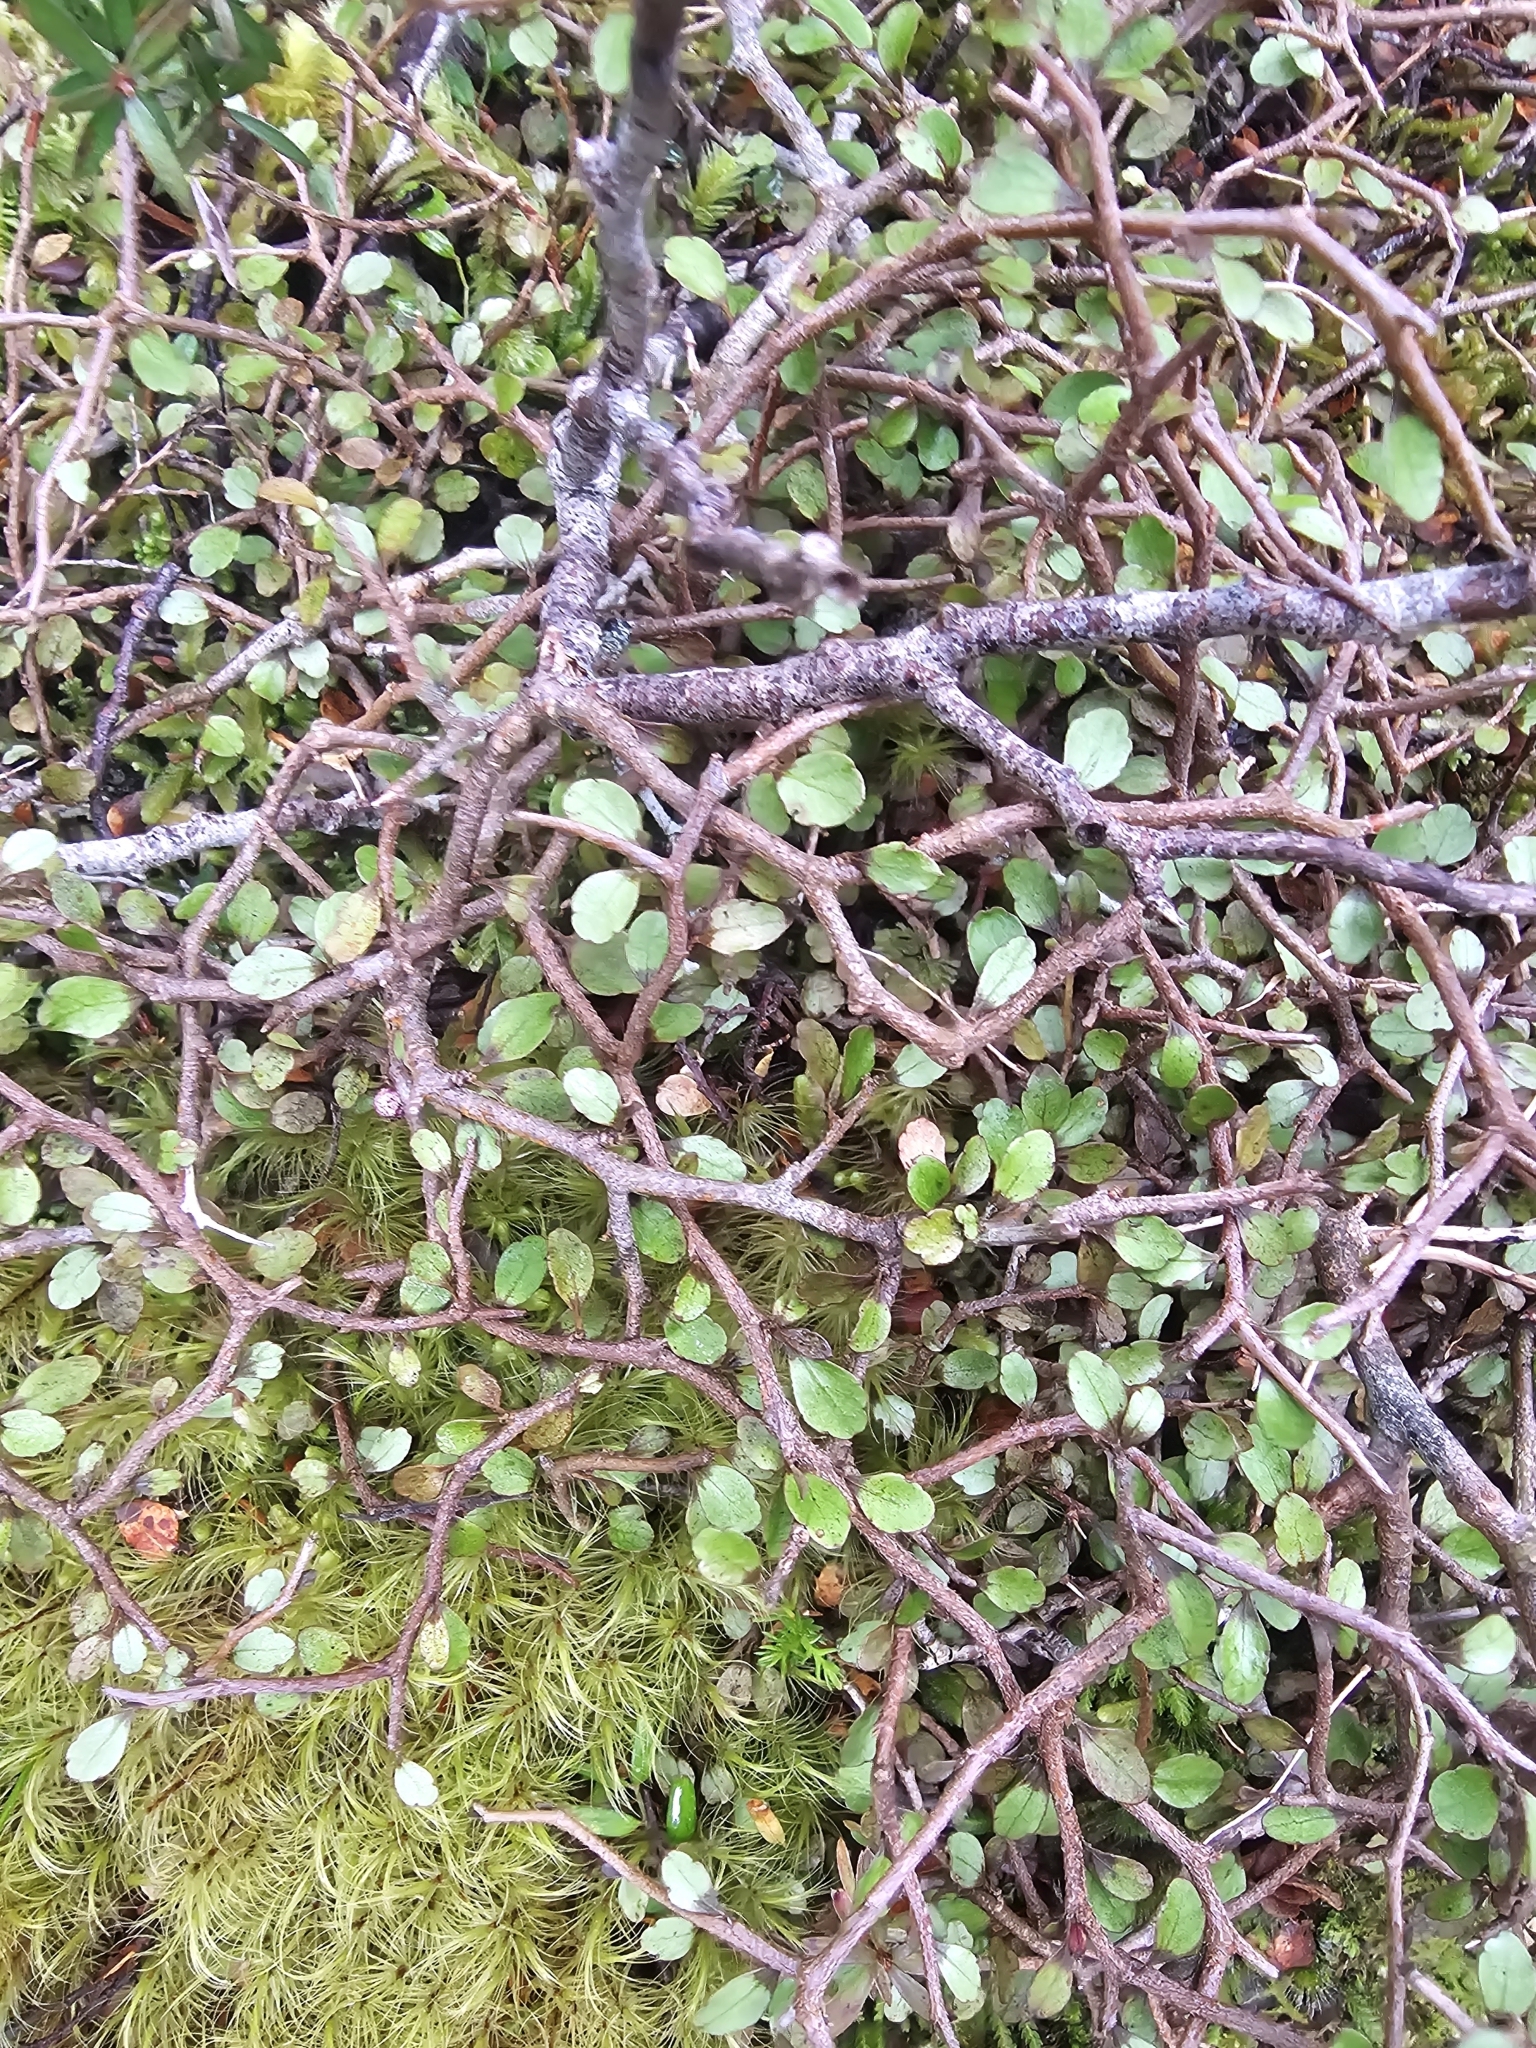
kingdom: Plantae
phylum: Tracheophyta
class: Magnoliopsida
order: Apiales
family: Araliaceae
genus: Raukaua
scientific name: Raukaua anomalus
